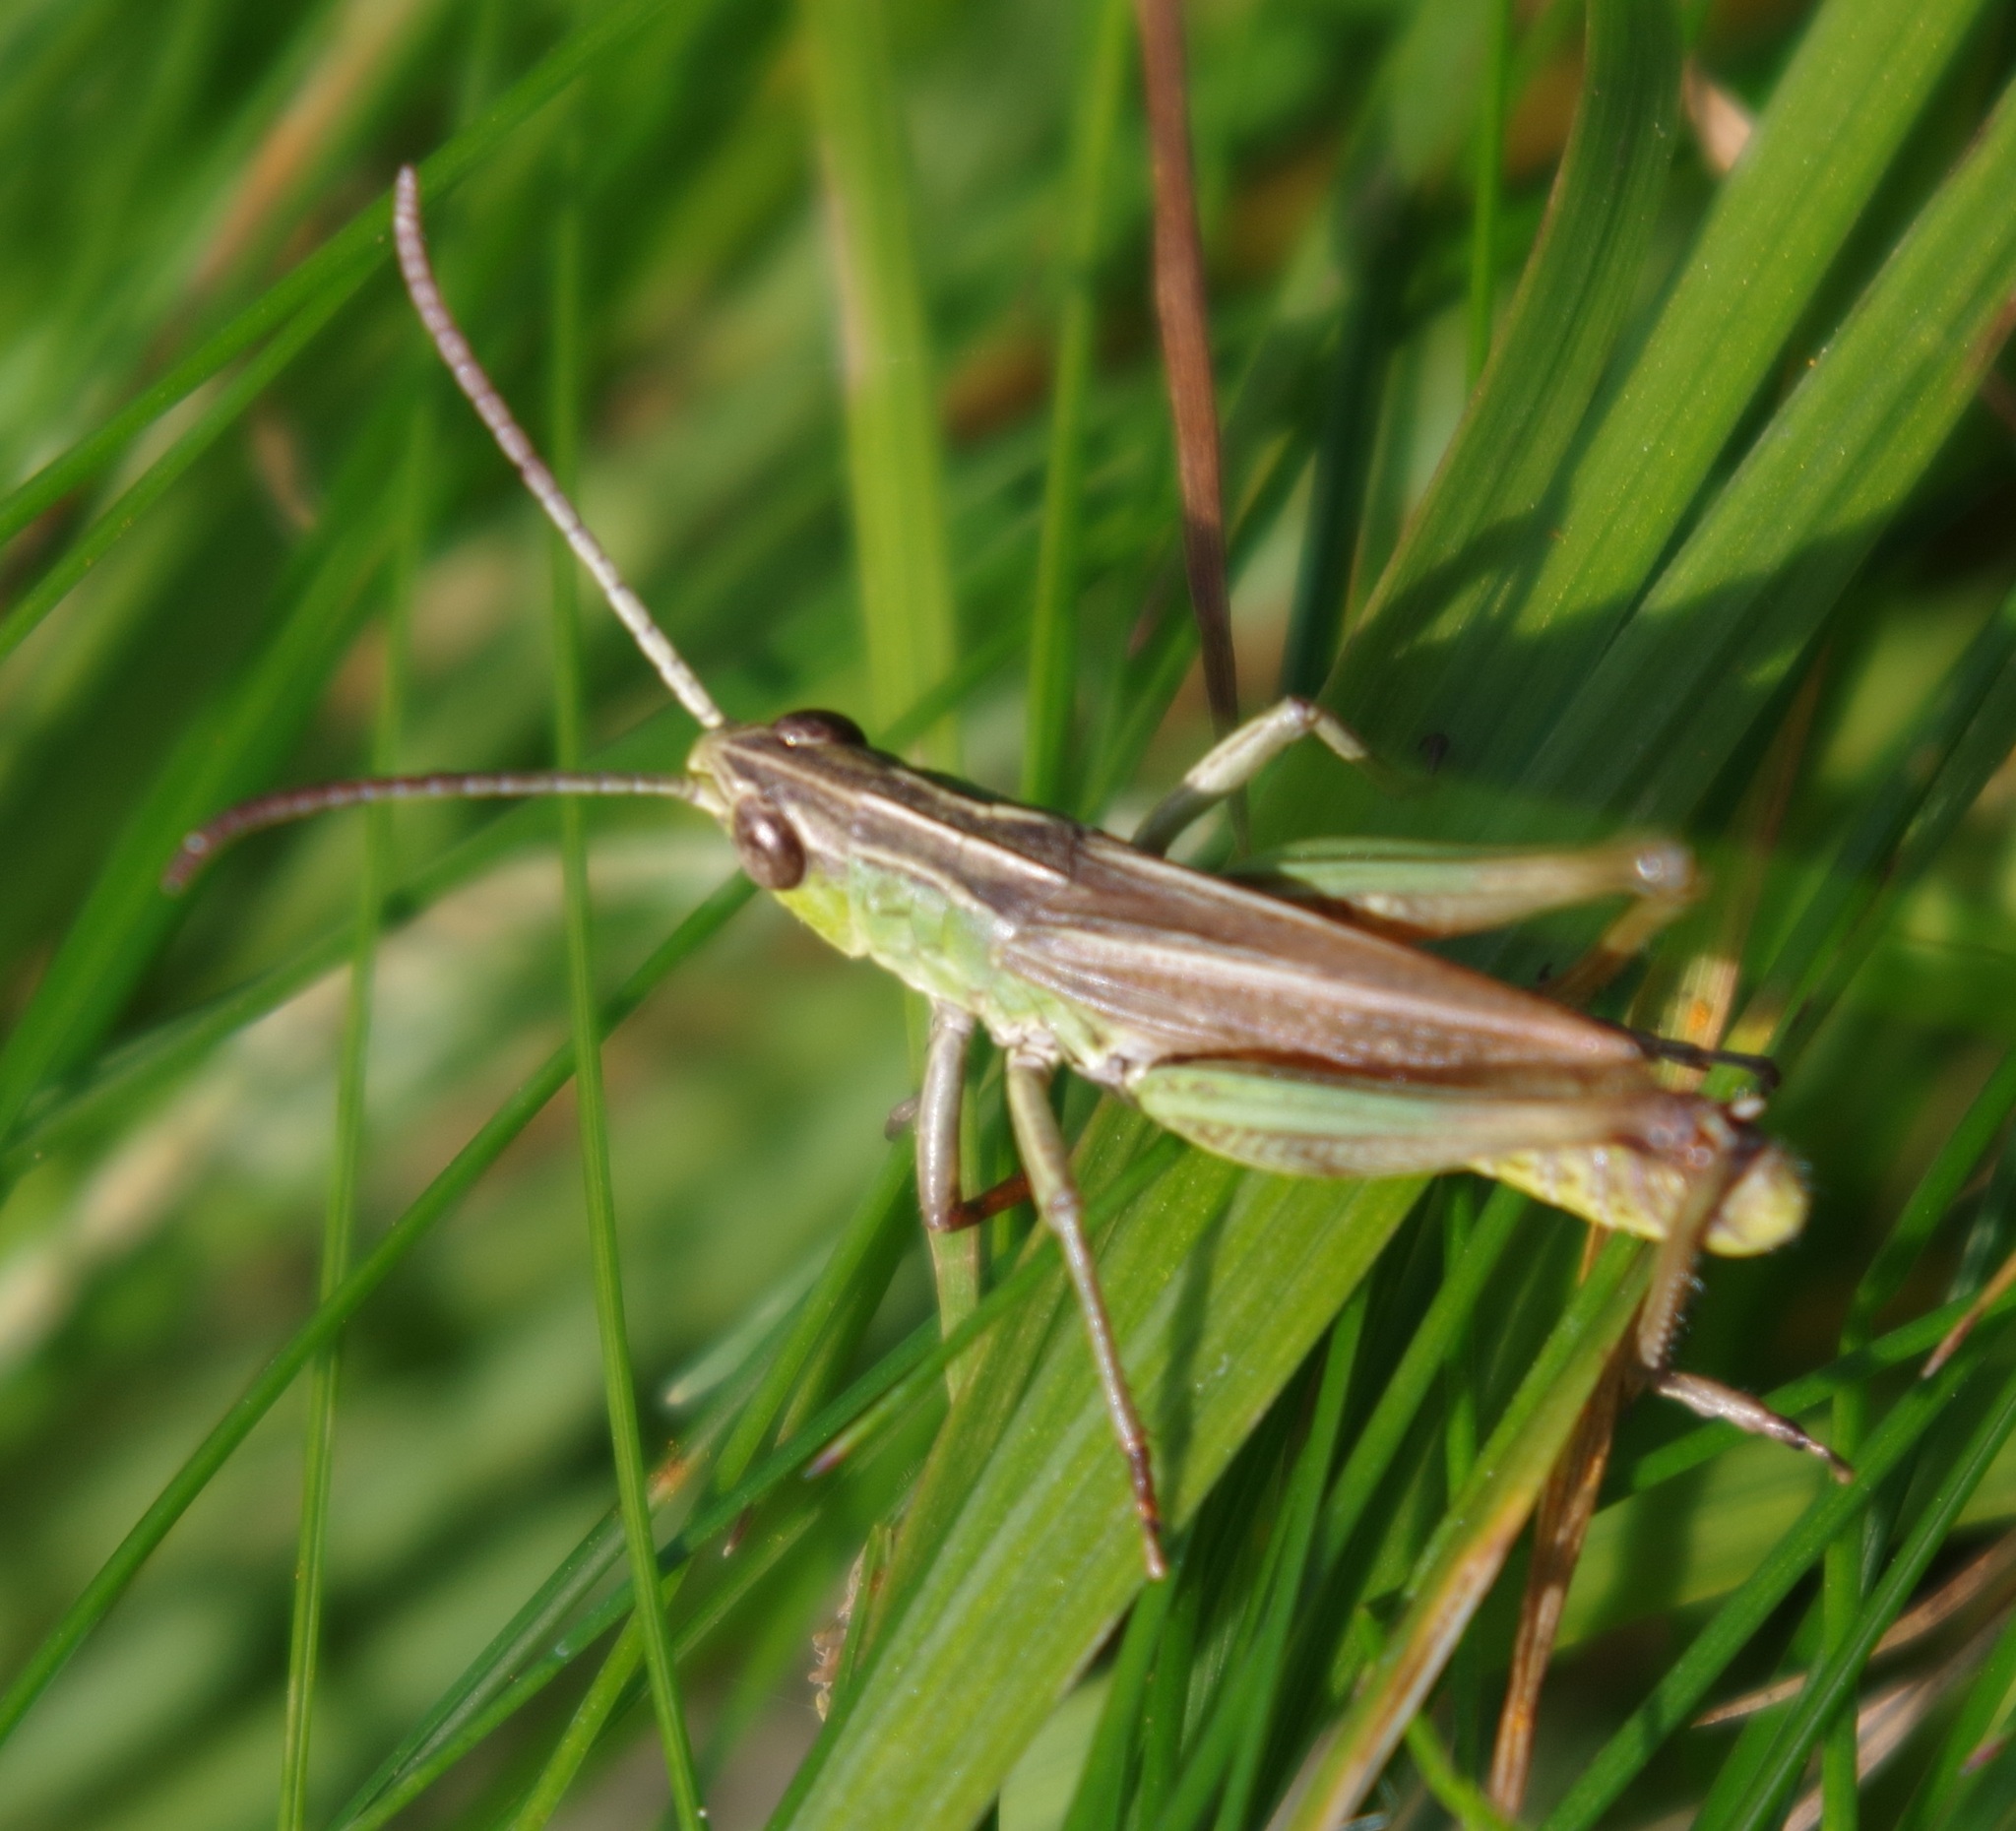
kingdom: Animalia
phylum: Arthropoda
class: Insecta
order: Orthoptera
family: Acrididae
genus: Pseudochorthippus
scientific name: Pseudochorthippus parallelus
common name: Meadow grasshopper
